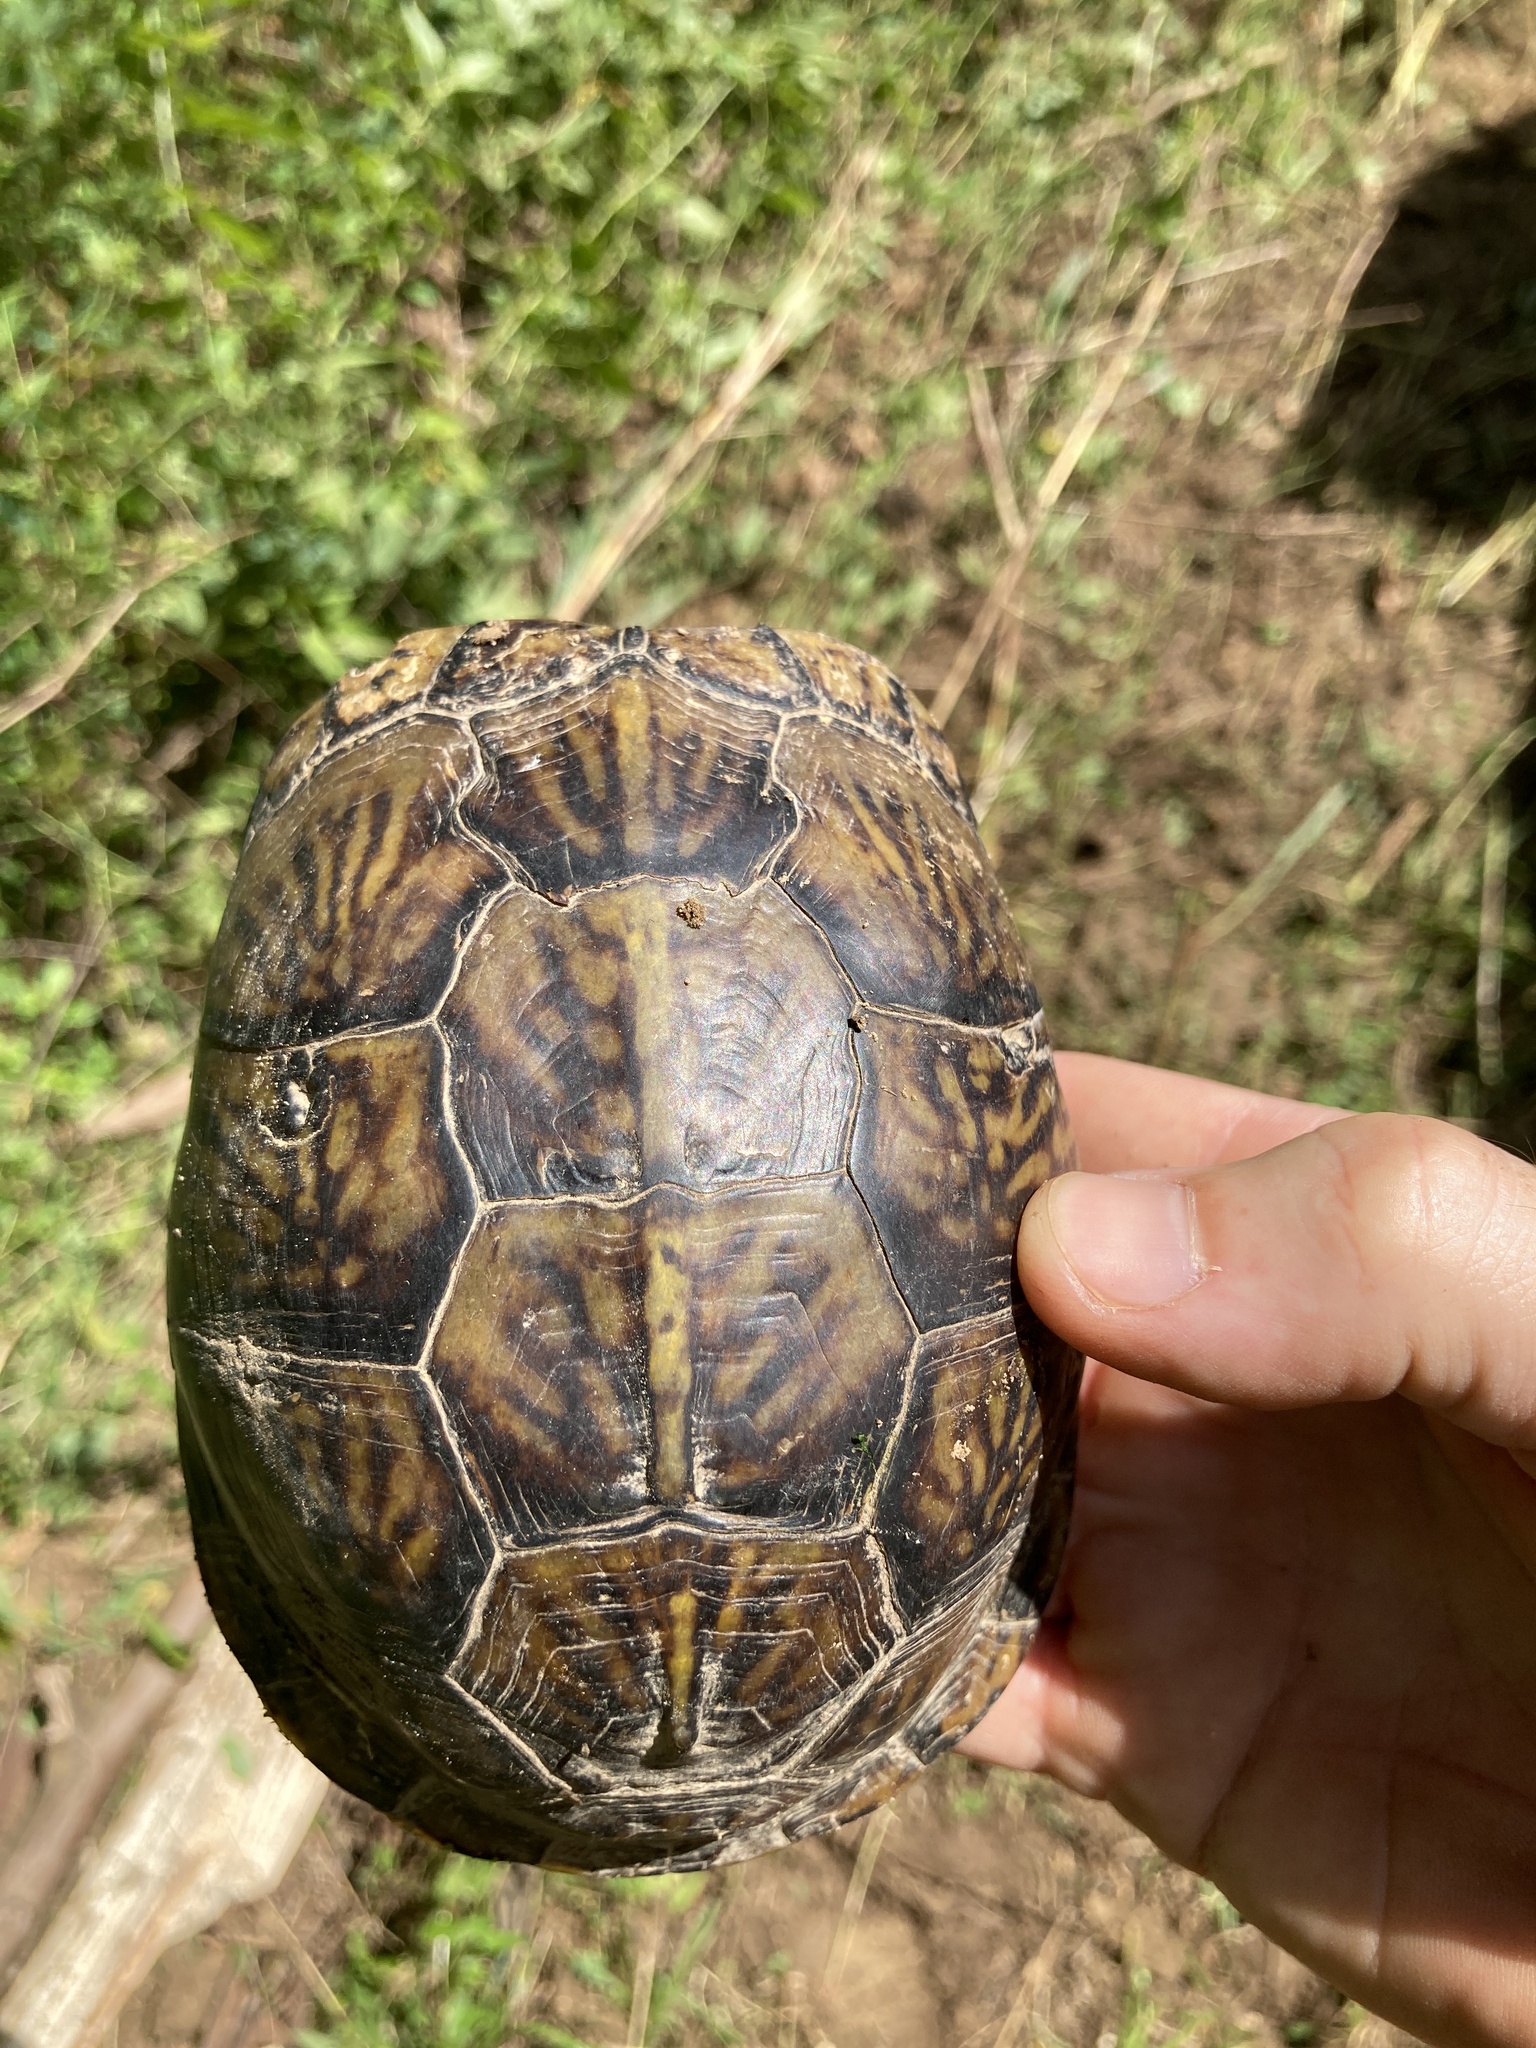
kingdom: Animalia
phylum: Chordata
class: Testudines
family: Emydidae
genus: Terrapene
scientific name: Terrapene carolina
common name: Common box turtle
